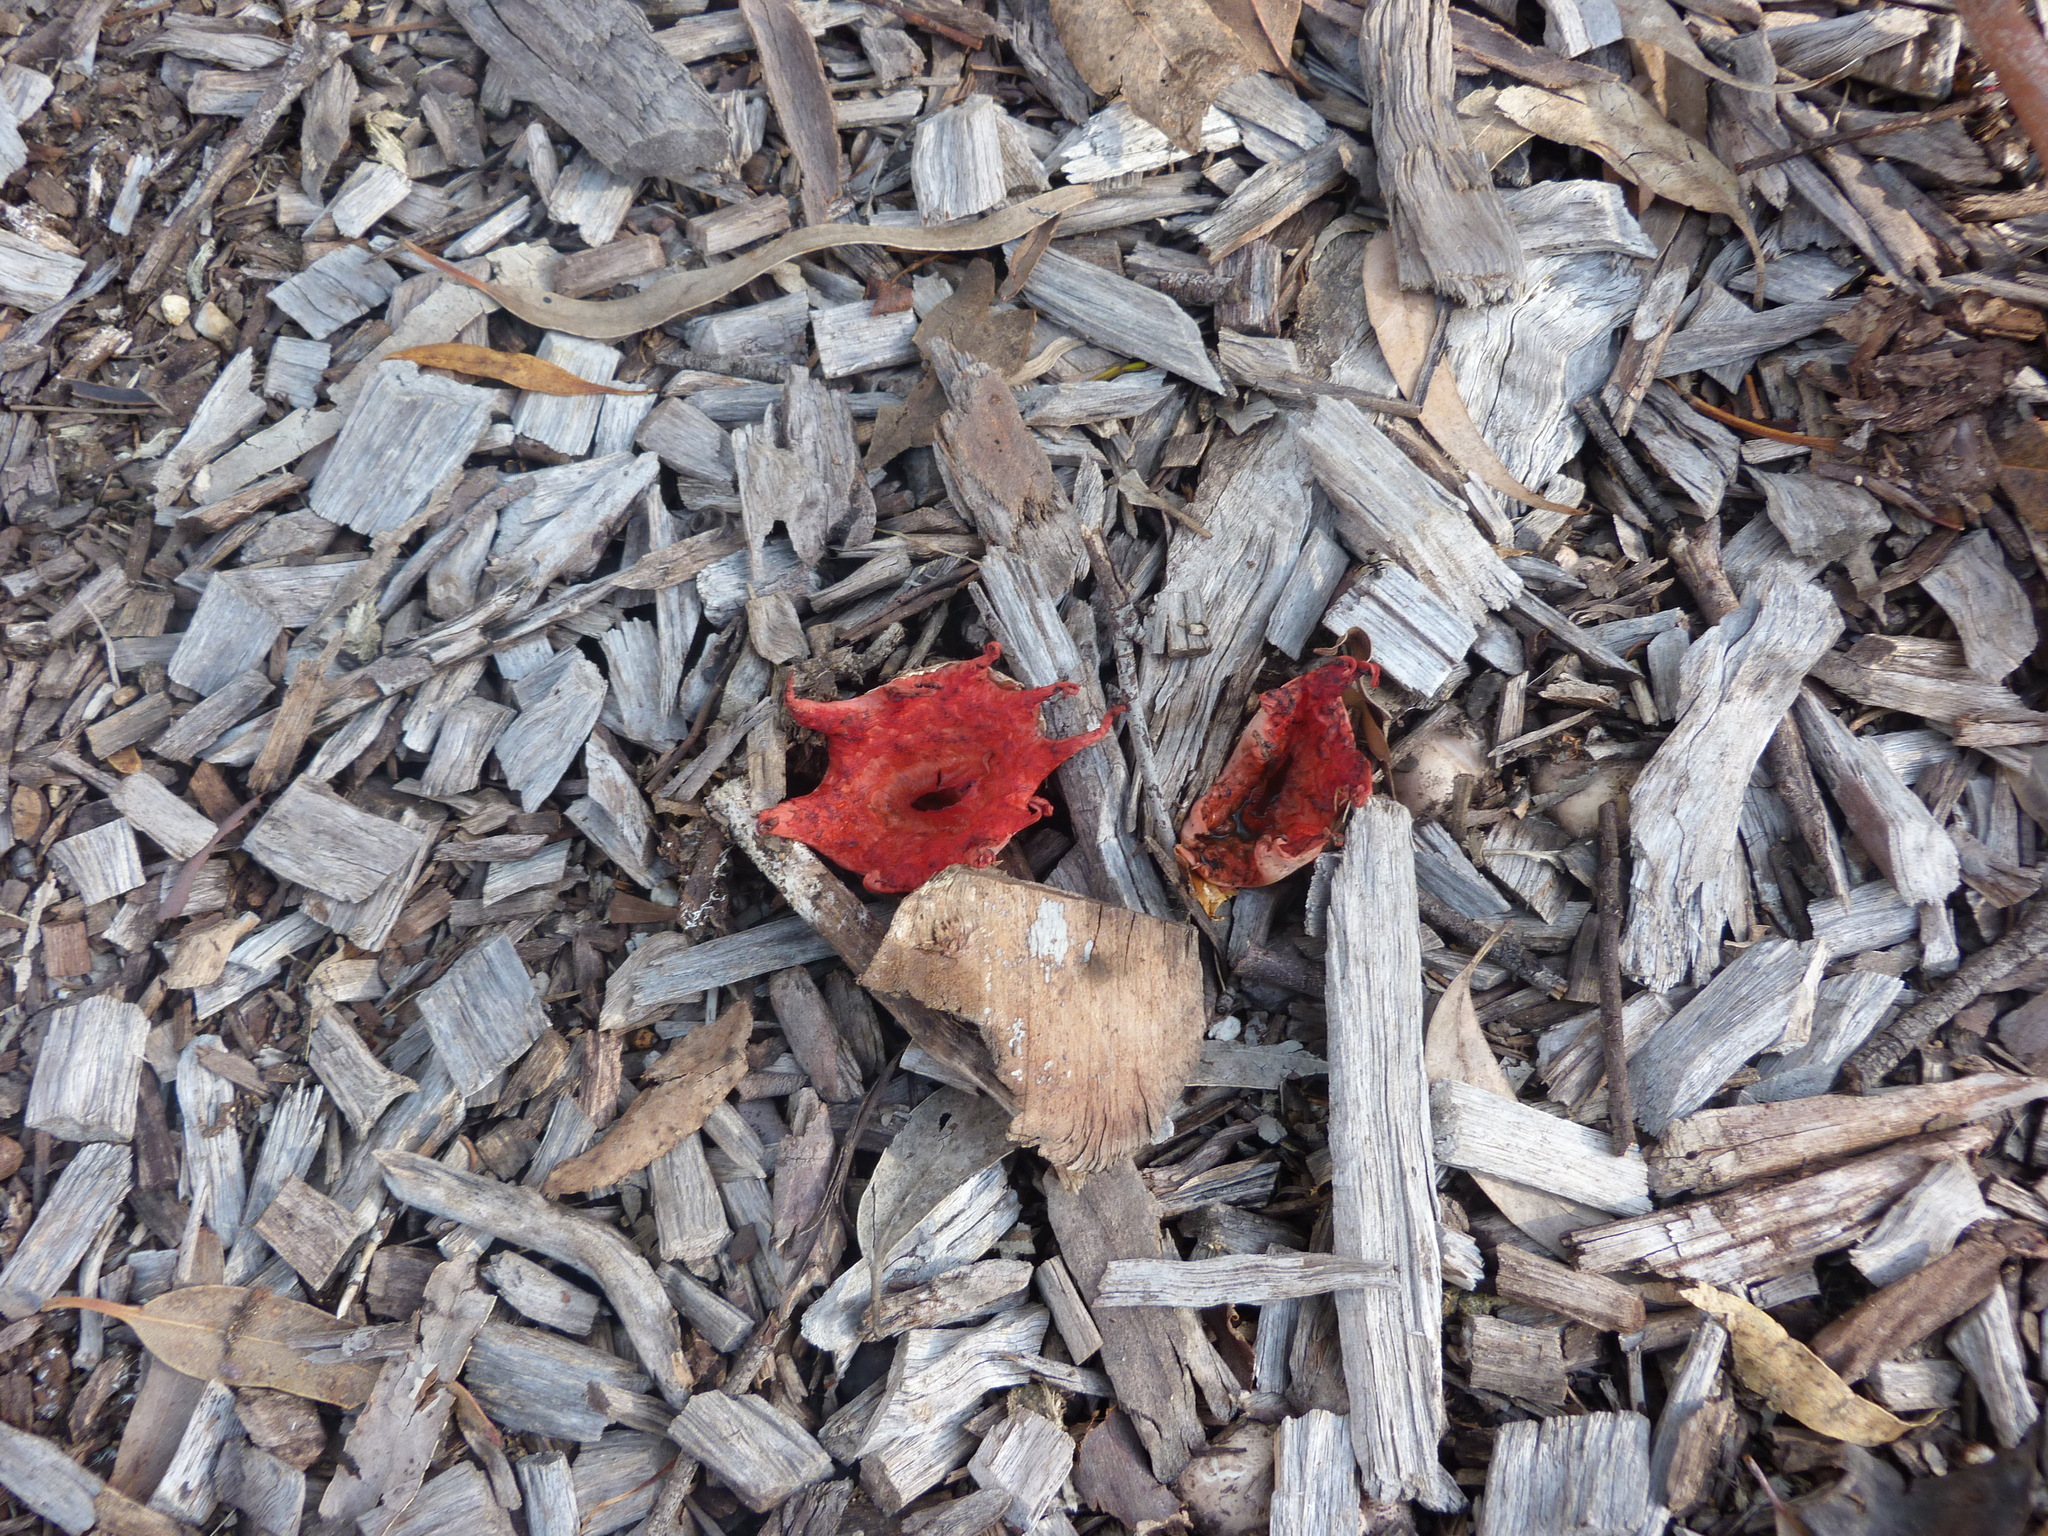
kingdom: Fungi
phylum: Basidiomycota
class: Agaricomycetes
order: Phallales
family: Phallaceae
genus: Aseroe
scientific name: Aseroe rubra
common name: Starfish fungus
